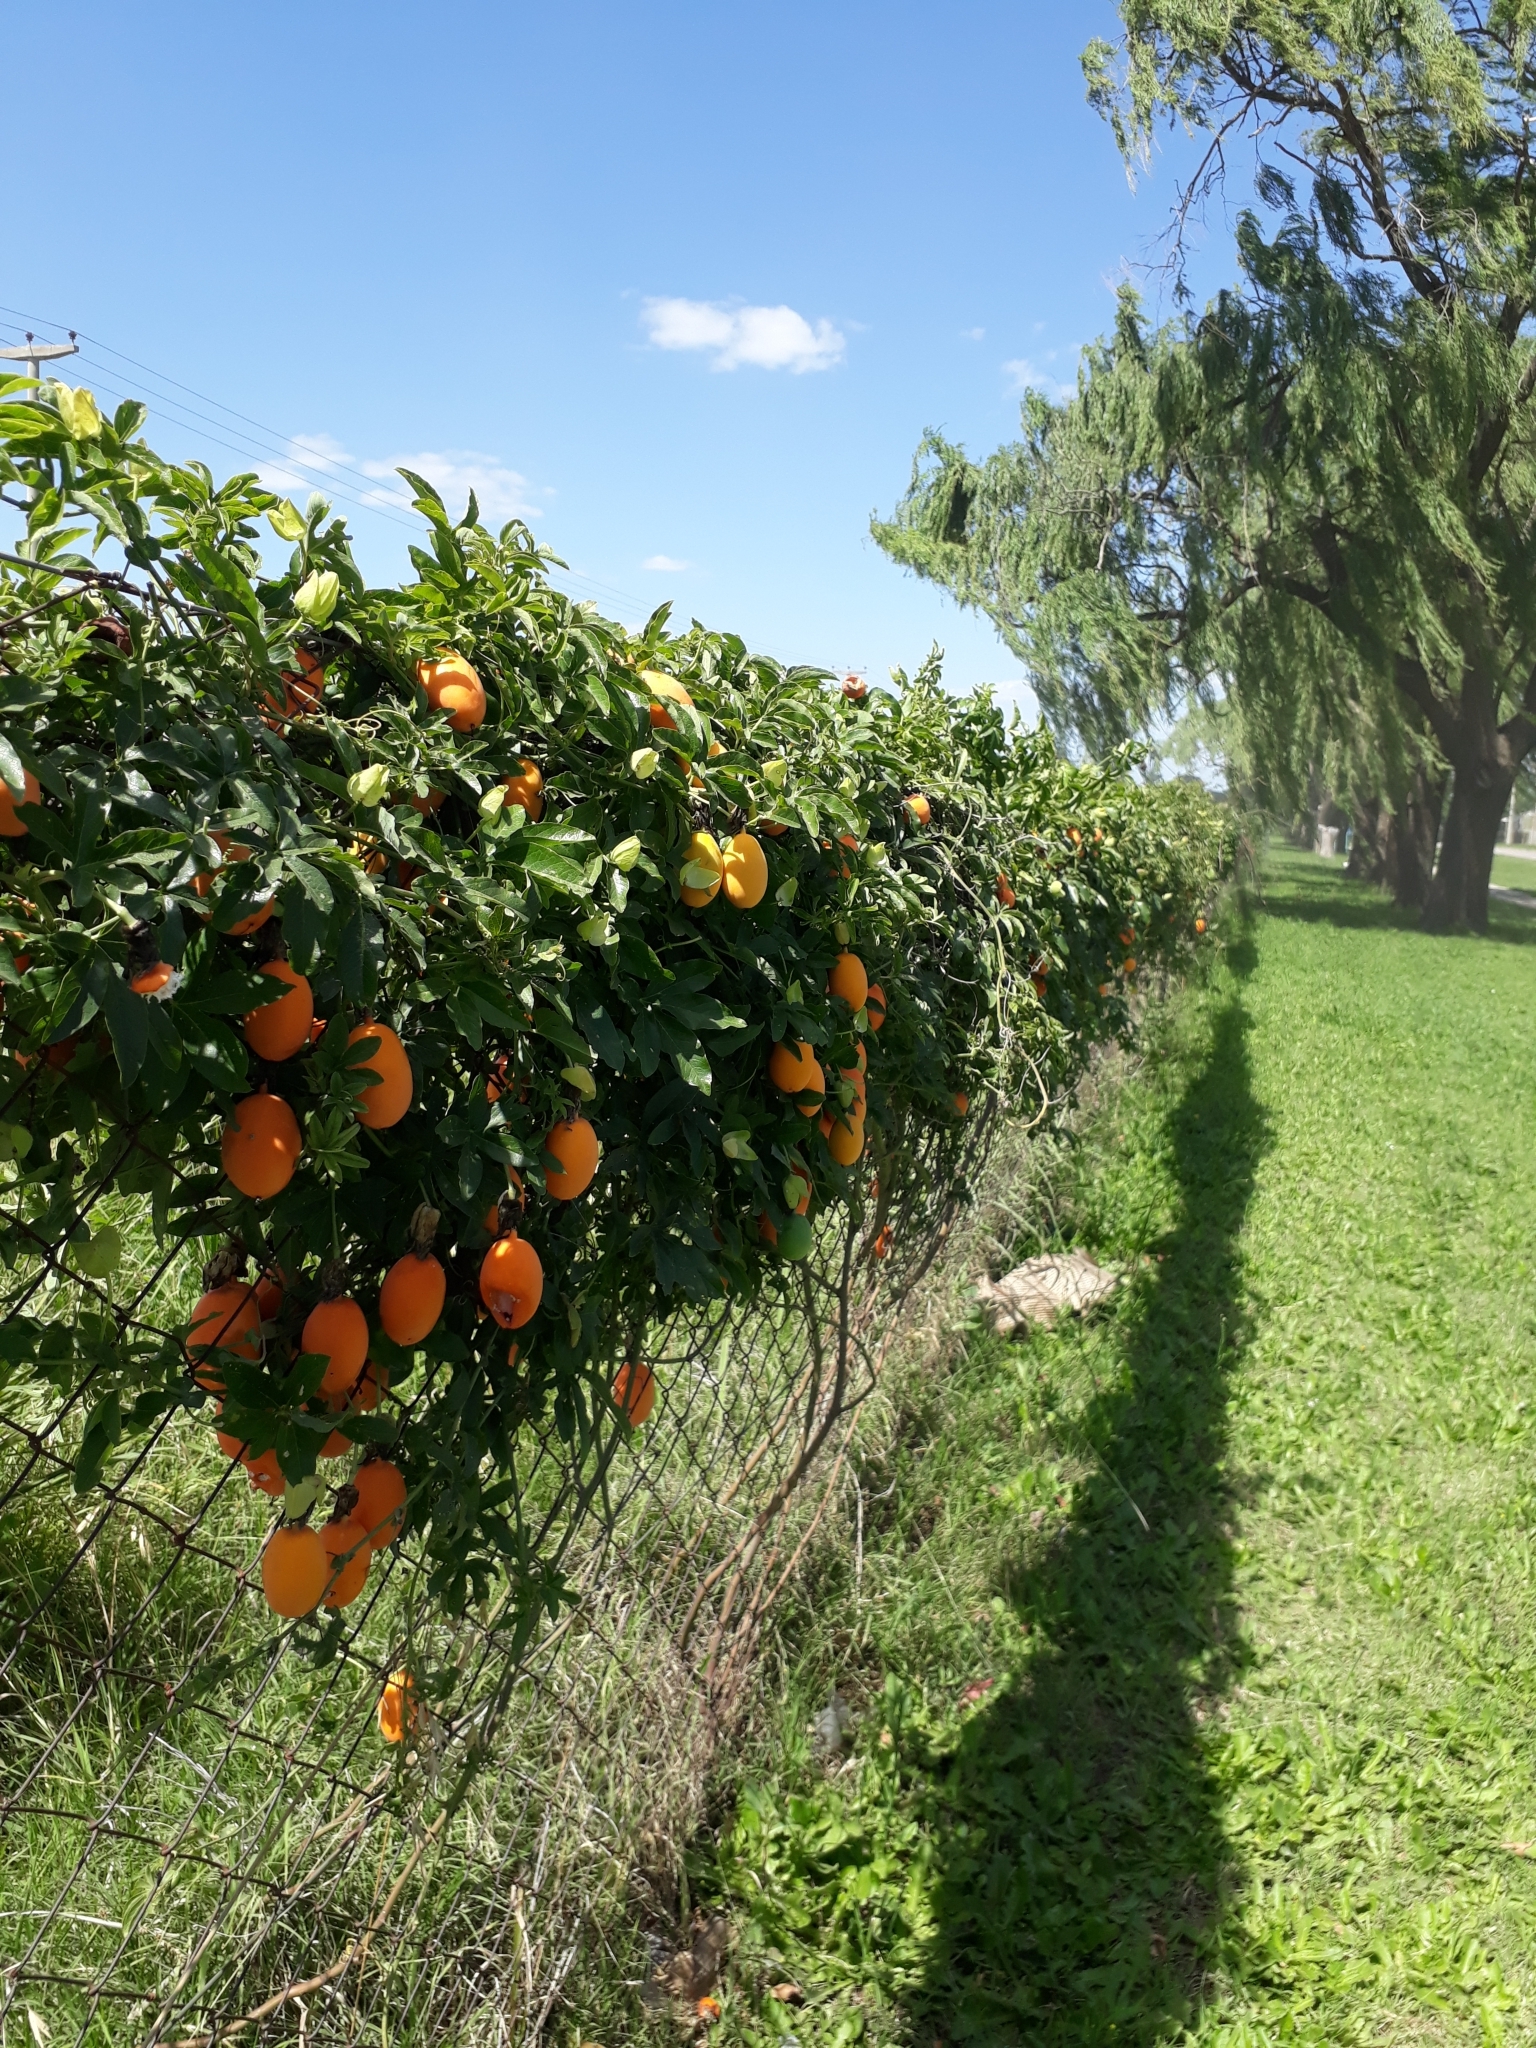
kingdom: Plantae
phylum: Tracheophyta
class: Magnoliopsida
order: Malpighiales
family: Passifloraceae
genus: Passiflora
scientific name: Passiflora caerulea
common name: Blue passionflower
